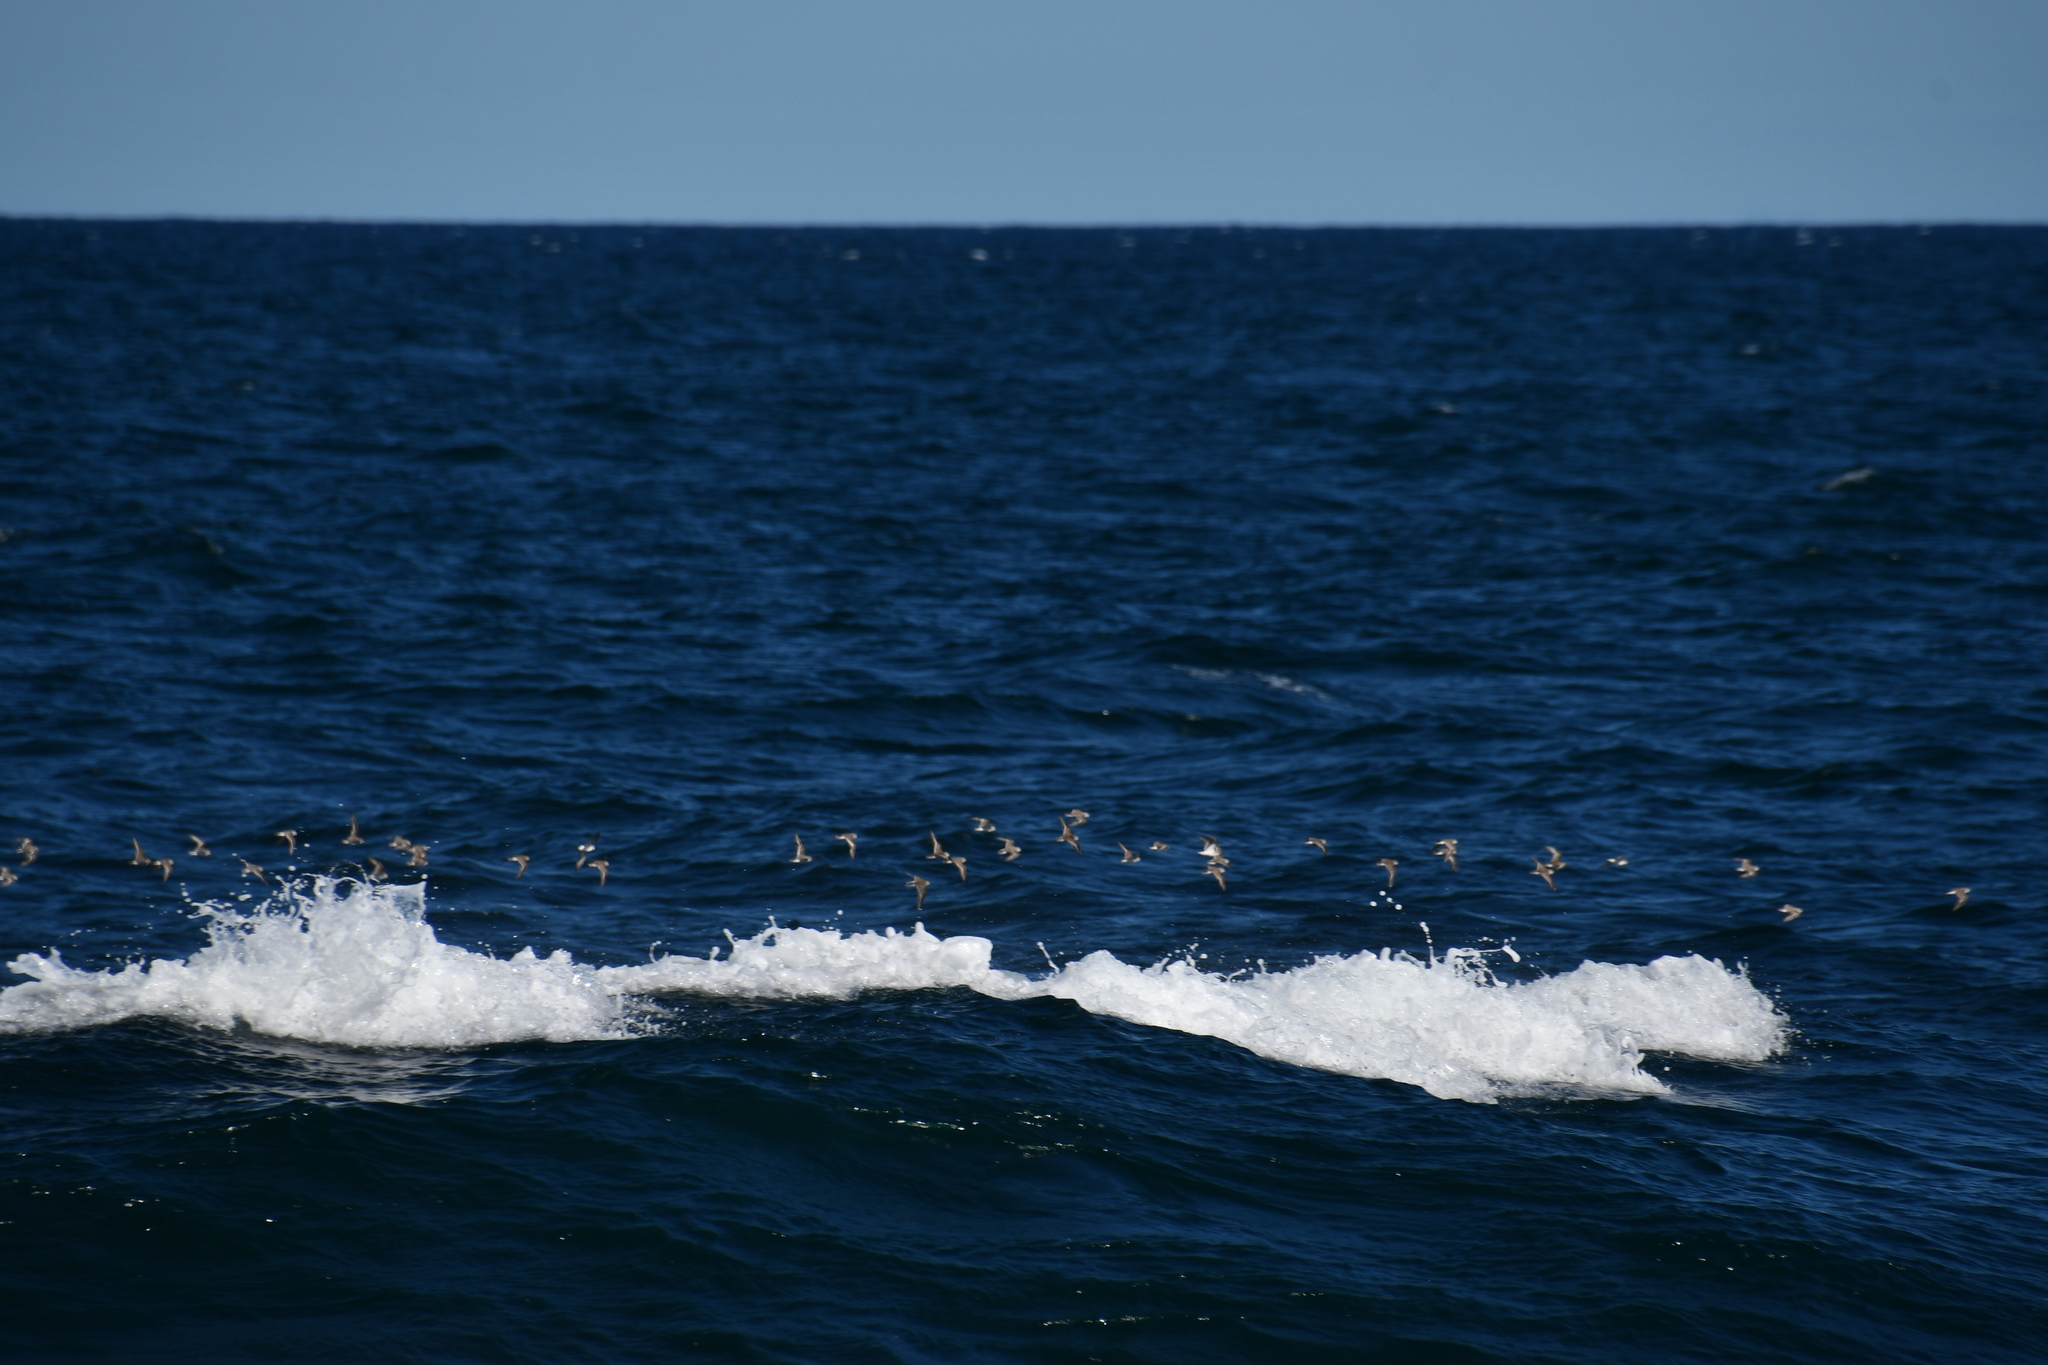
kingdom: Animalia
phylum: Chordata
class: Aves
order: Charadriiformes
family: Scolopacidae
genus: Calidris
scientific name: Calidris ruficollis
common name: Red-necked stint
